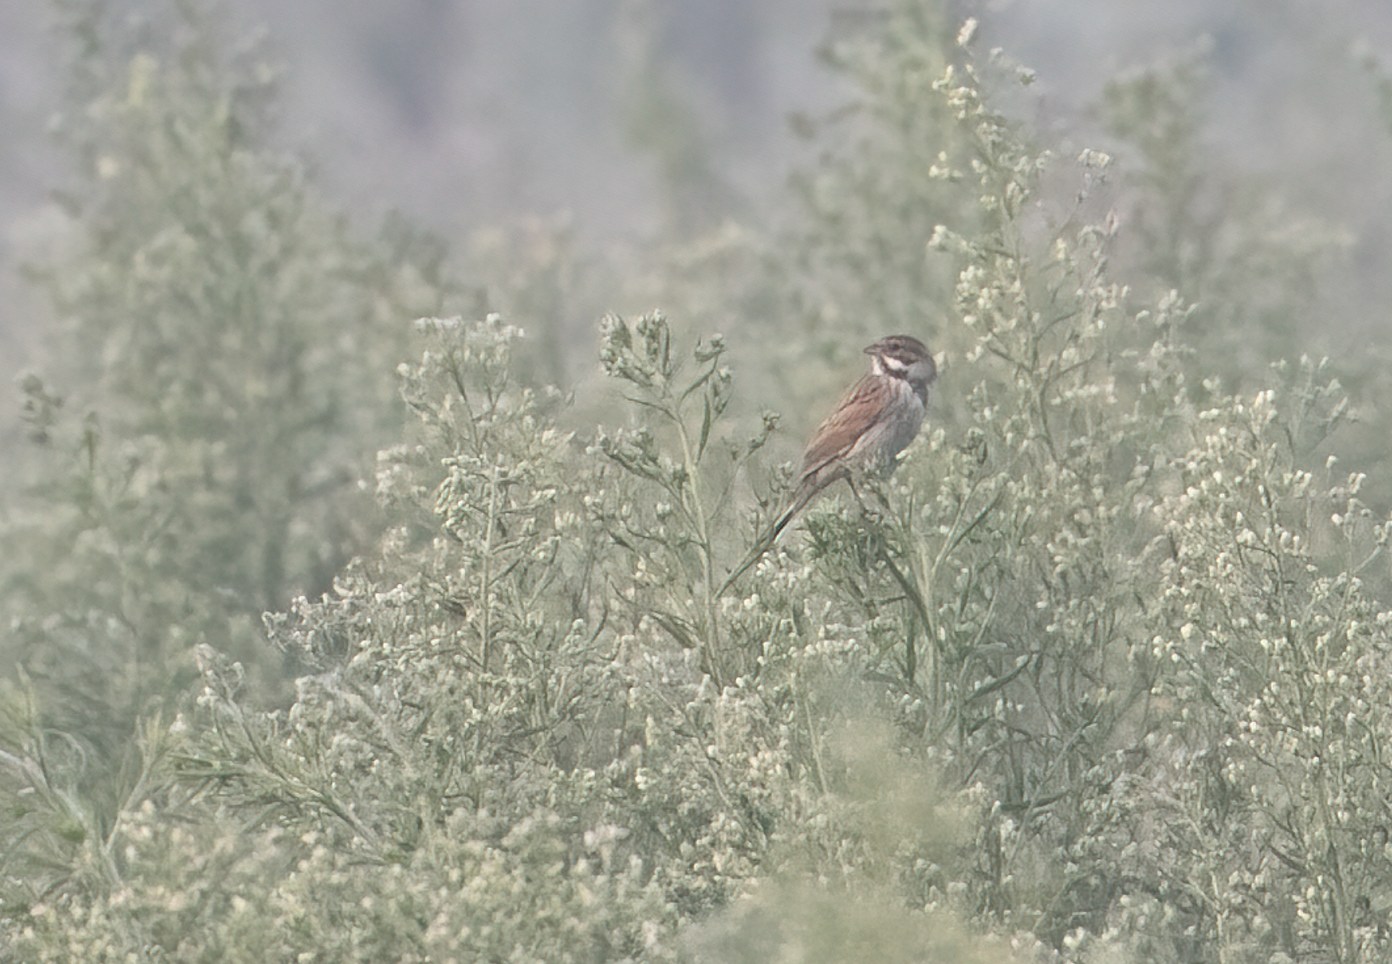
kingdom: Animalia
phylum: Chordata
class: Aves
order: Passeriformes
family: Emberizidae
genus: Emberiza
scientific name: Emberiza schoeniclus
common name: Reed bunting
